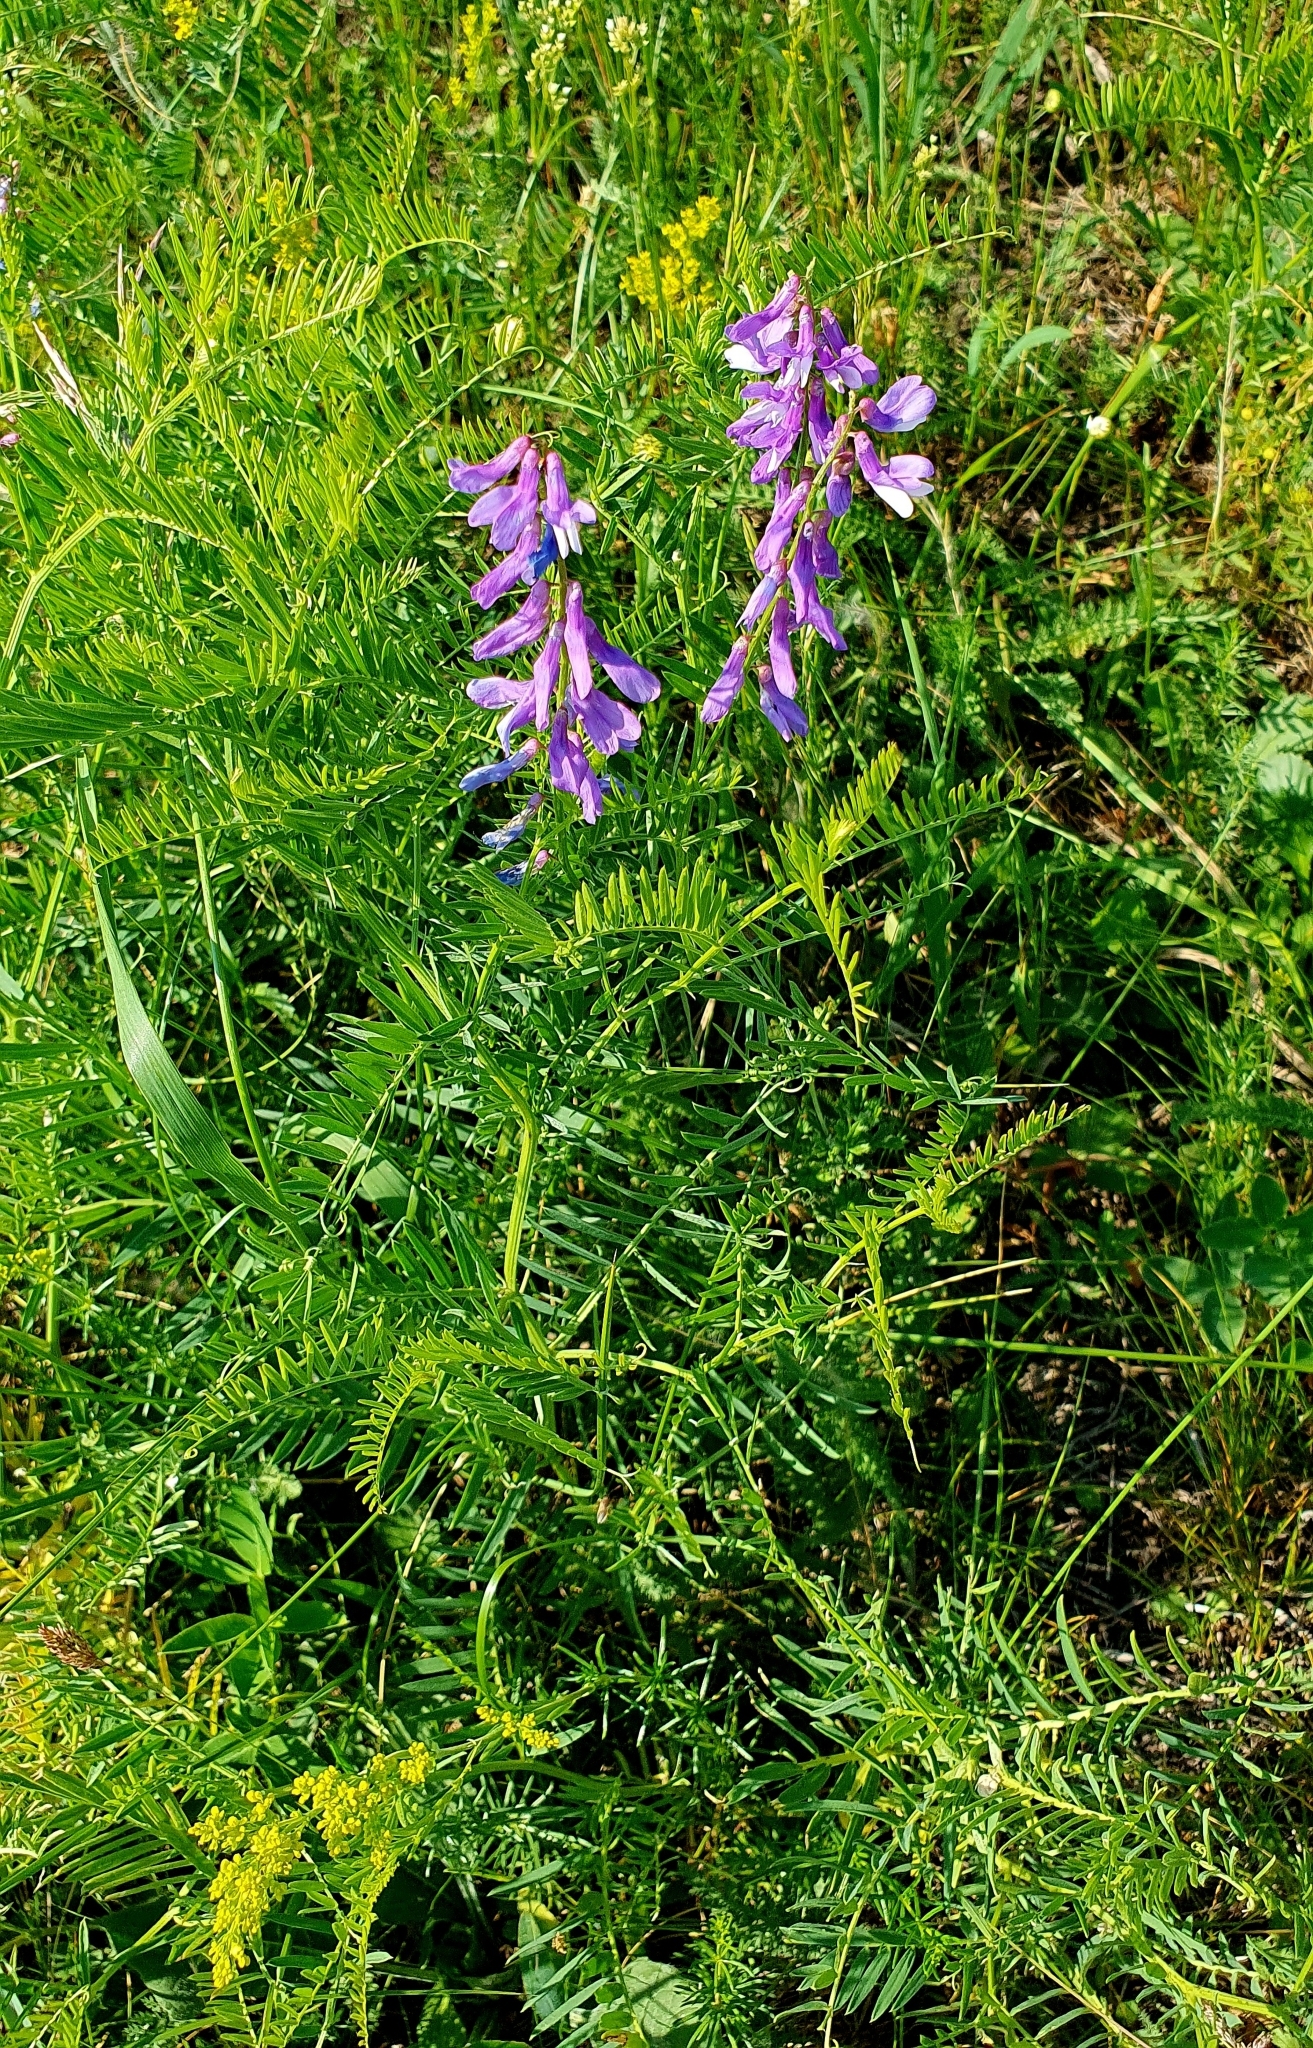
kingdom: Plantae
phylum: Tracheophyta
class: Magnoliopsida
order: Fabales
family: Fabaceae
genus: Vicia
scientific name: Vicia tenuifolia
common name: Fine-leaved vetch
